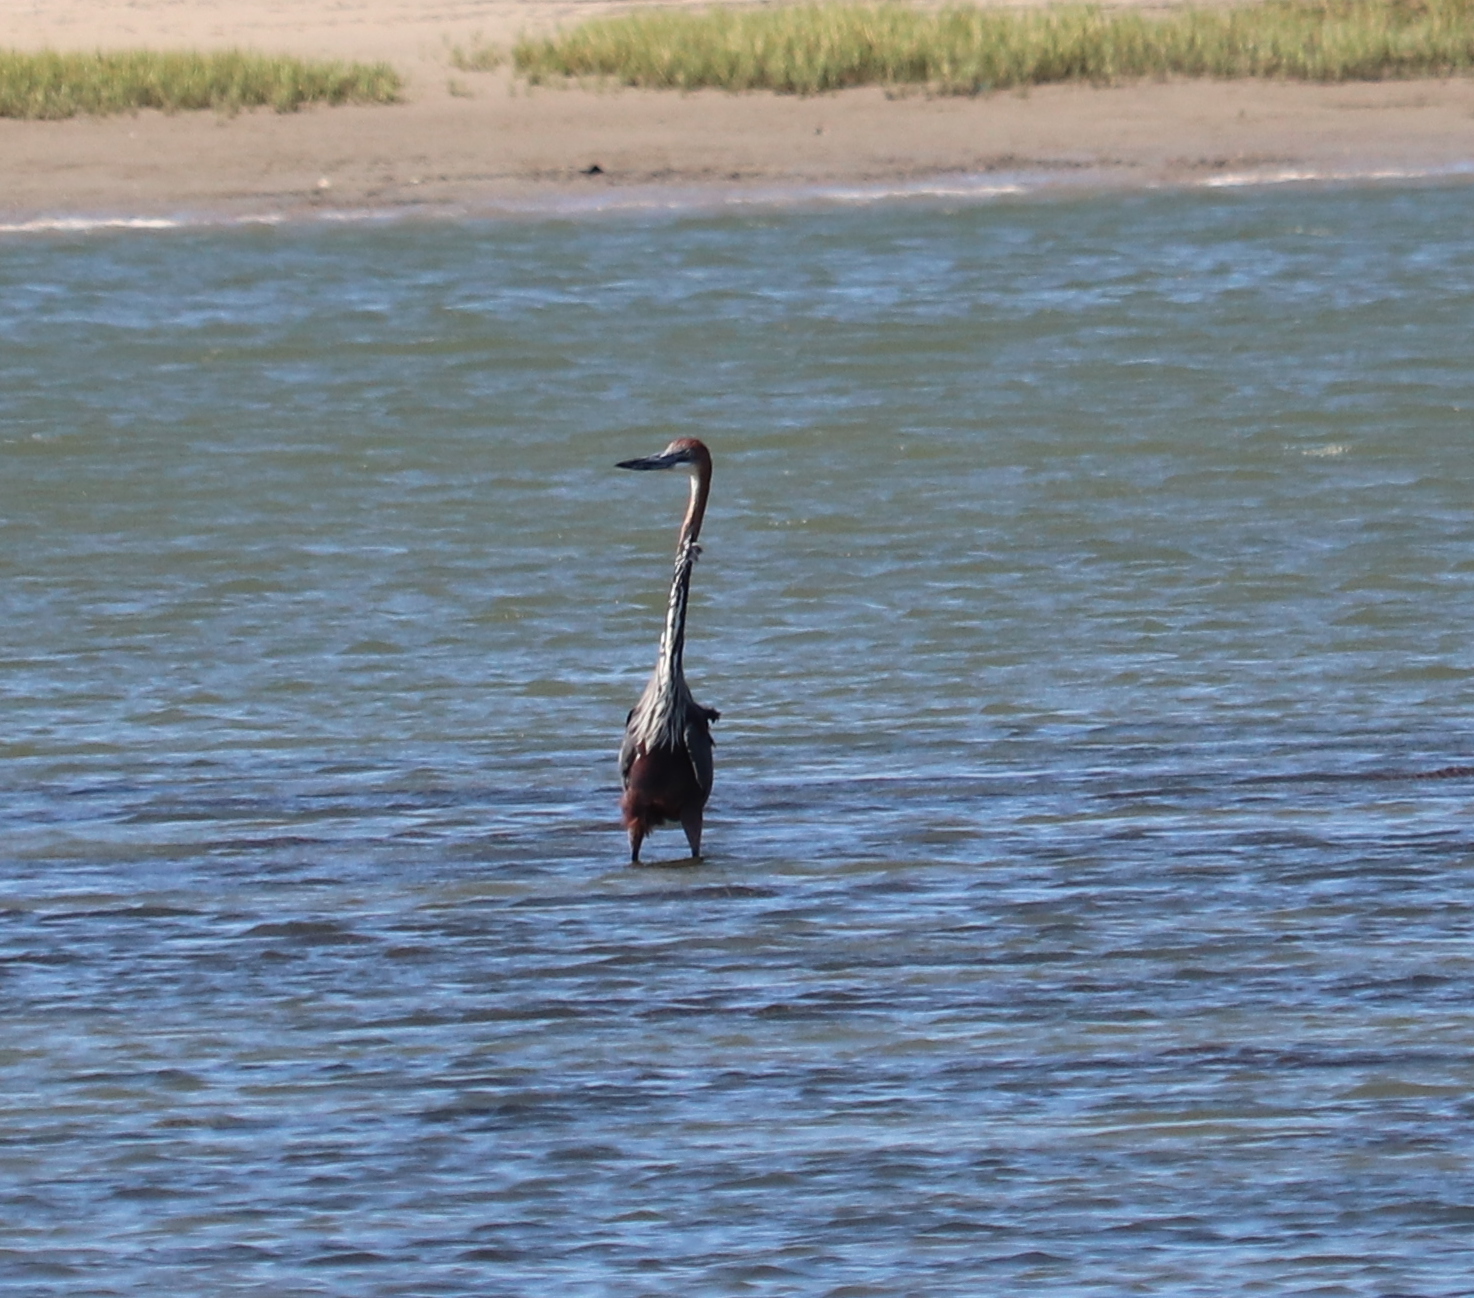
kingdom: Animalia
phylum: Chordata
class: Aves
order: Pelecaniformes
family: Ardeidae
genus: Ardea
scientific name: Ardea goliath
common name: Goliath heron
